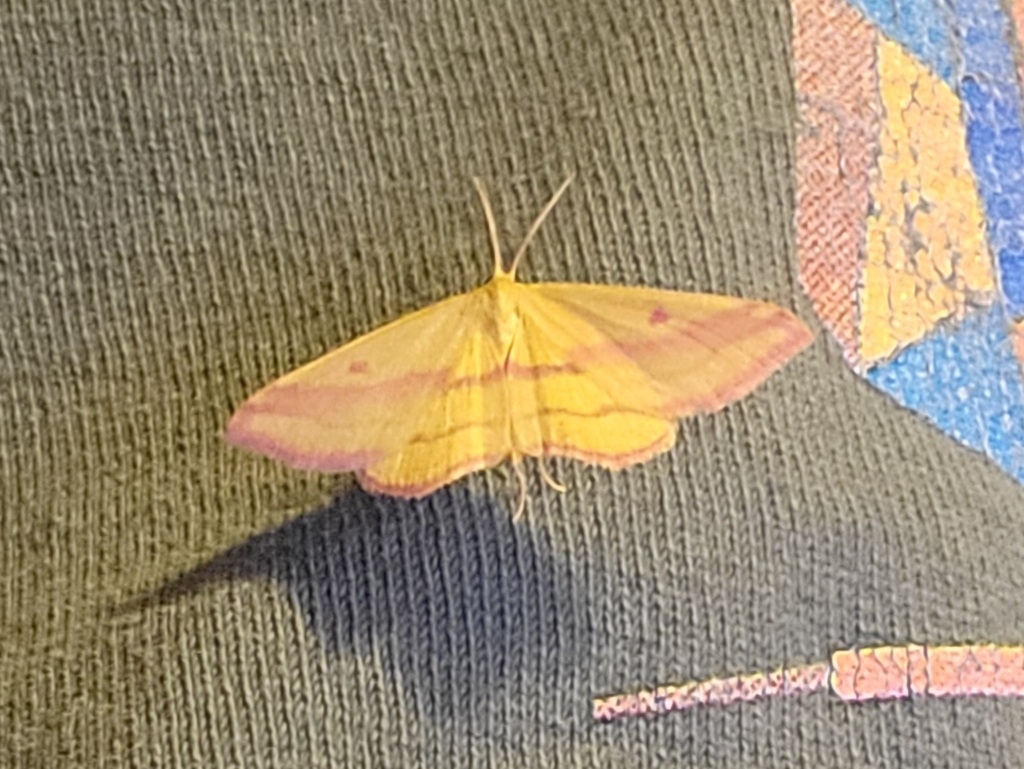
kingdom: Animalia
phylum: Arthropoda
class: Insecta
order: Lepidoptera
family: Geometridae
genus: Haematopis
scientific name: Haematopis grataria
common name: Chickweed geometer
